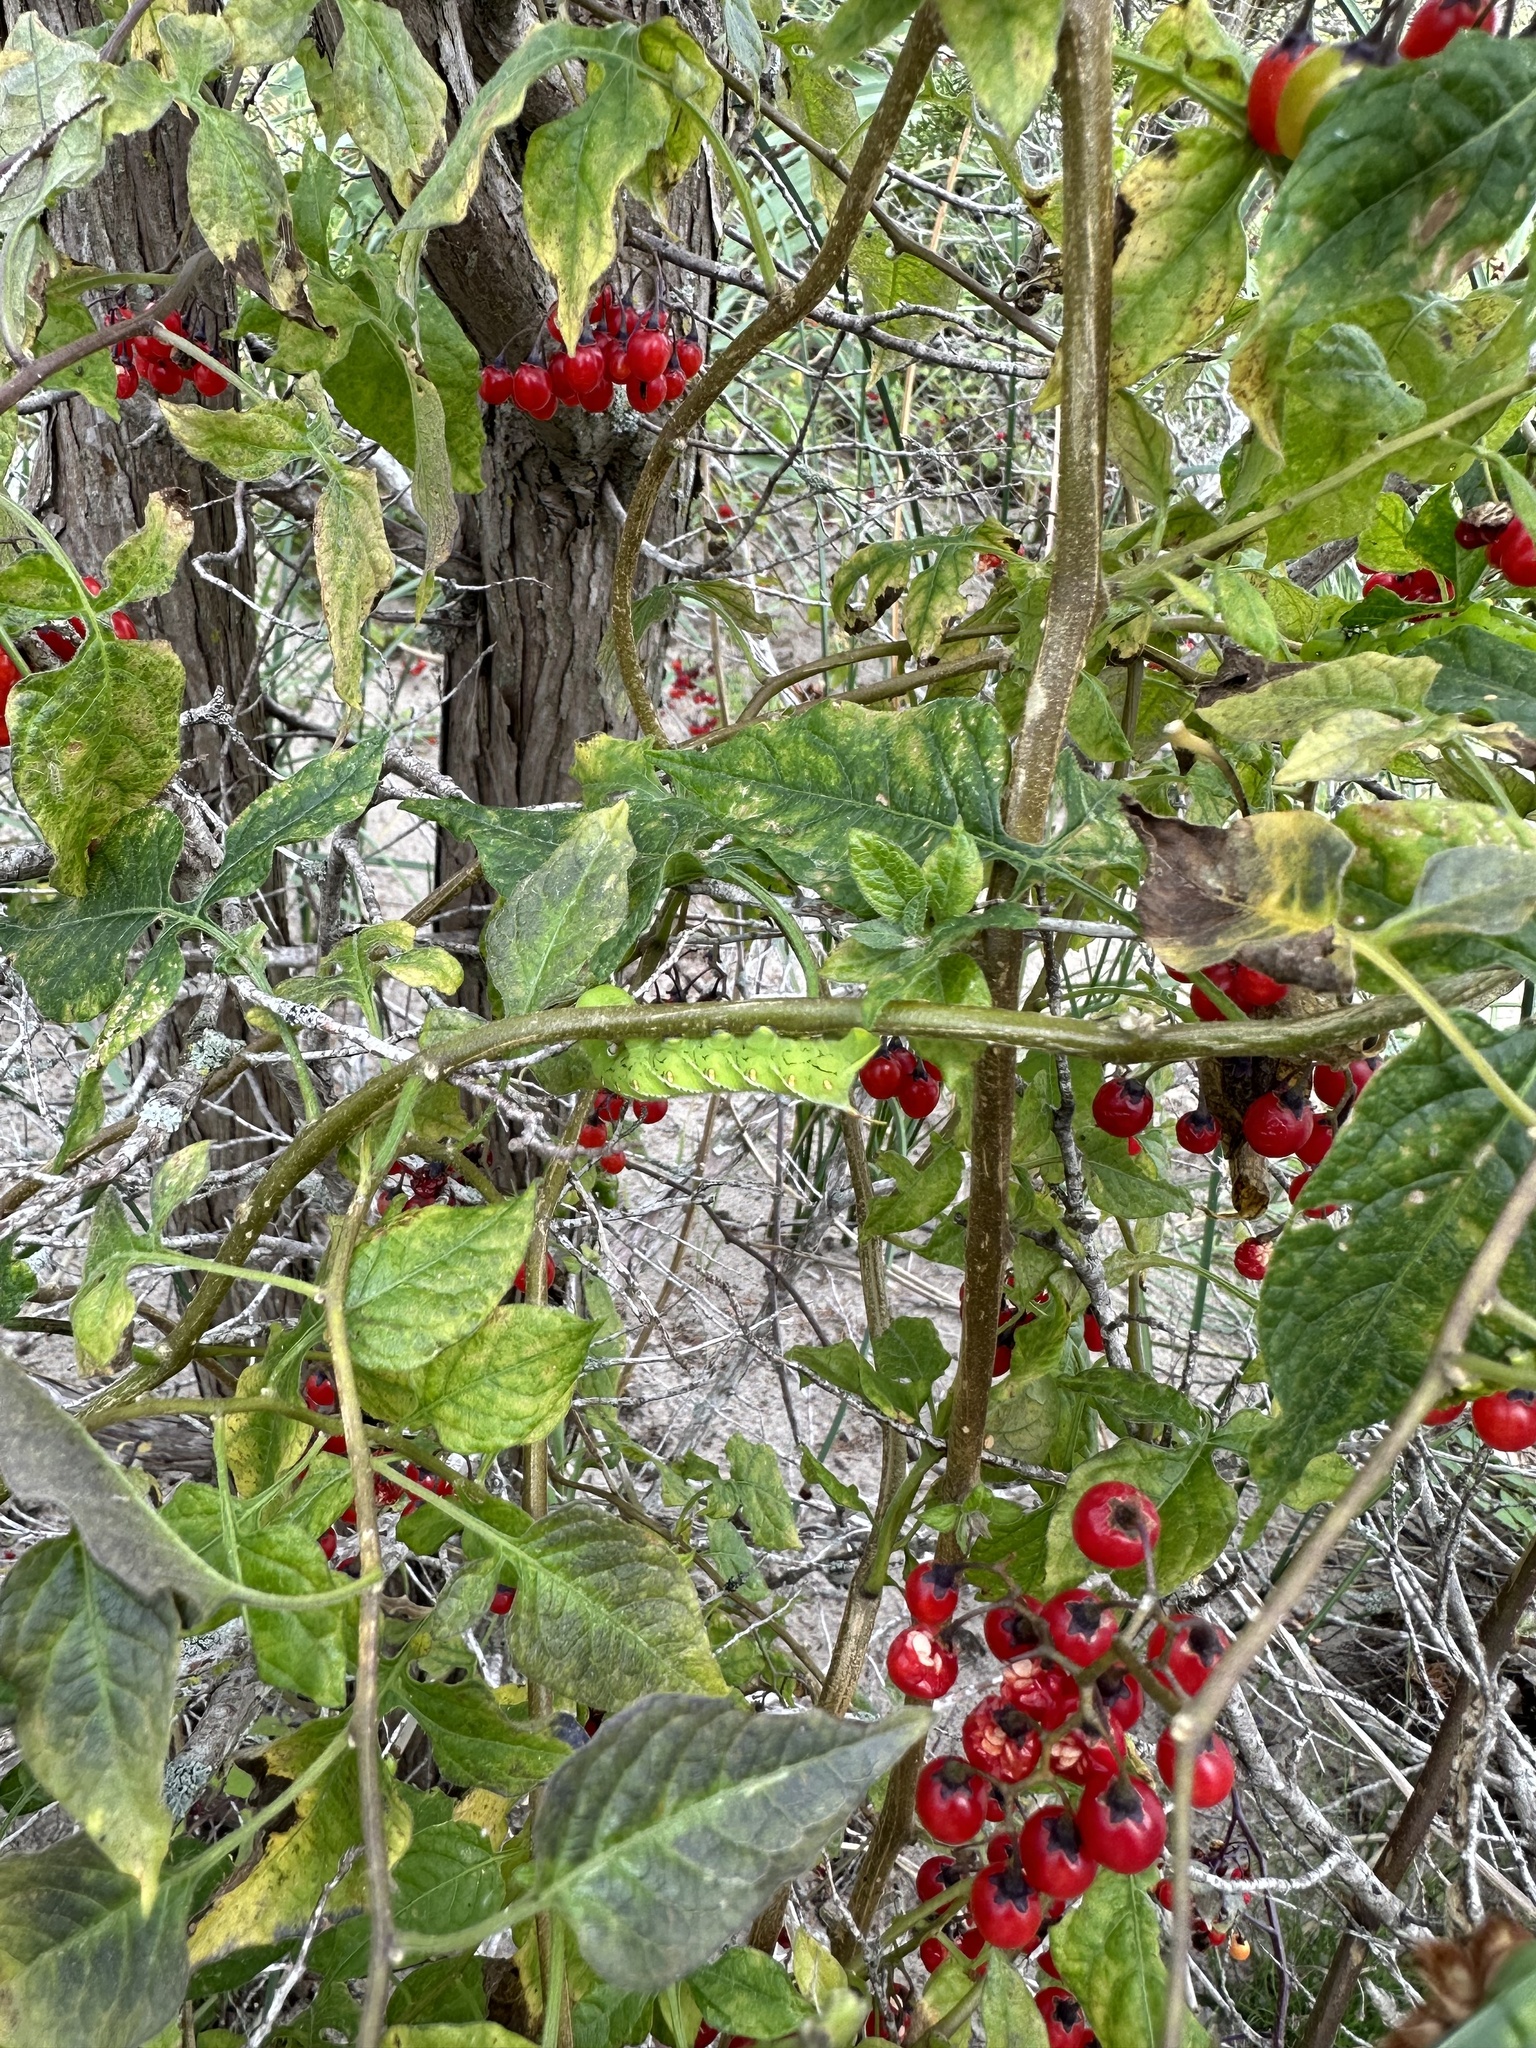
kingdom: Plantae
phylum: Tracheophyta
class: Magnoliopsida
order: Solanales
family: Solanaceae
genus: Solanum
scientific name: Solanum dulcamara
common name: Climbing nightshade
